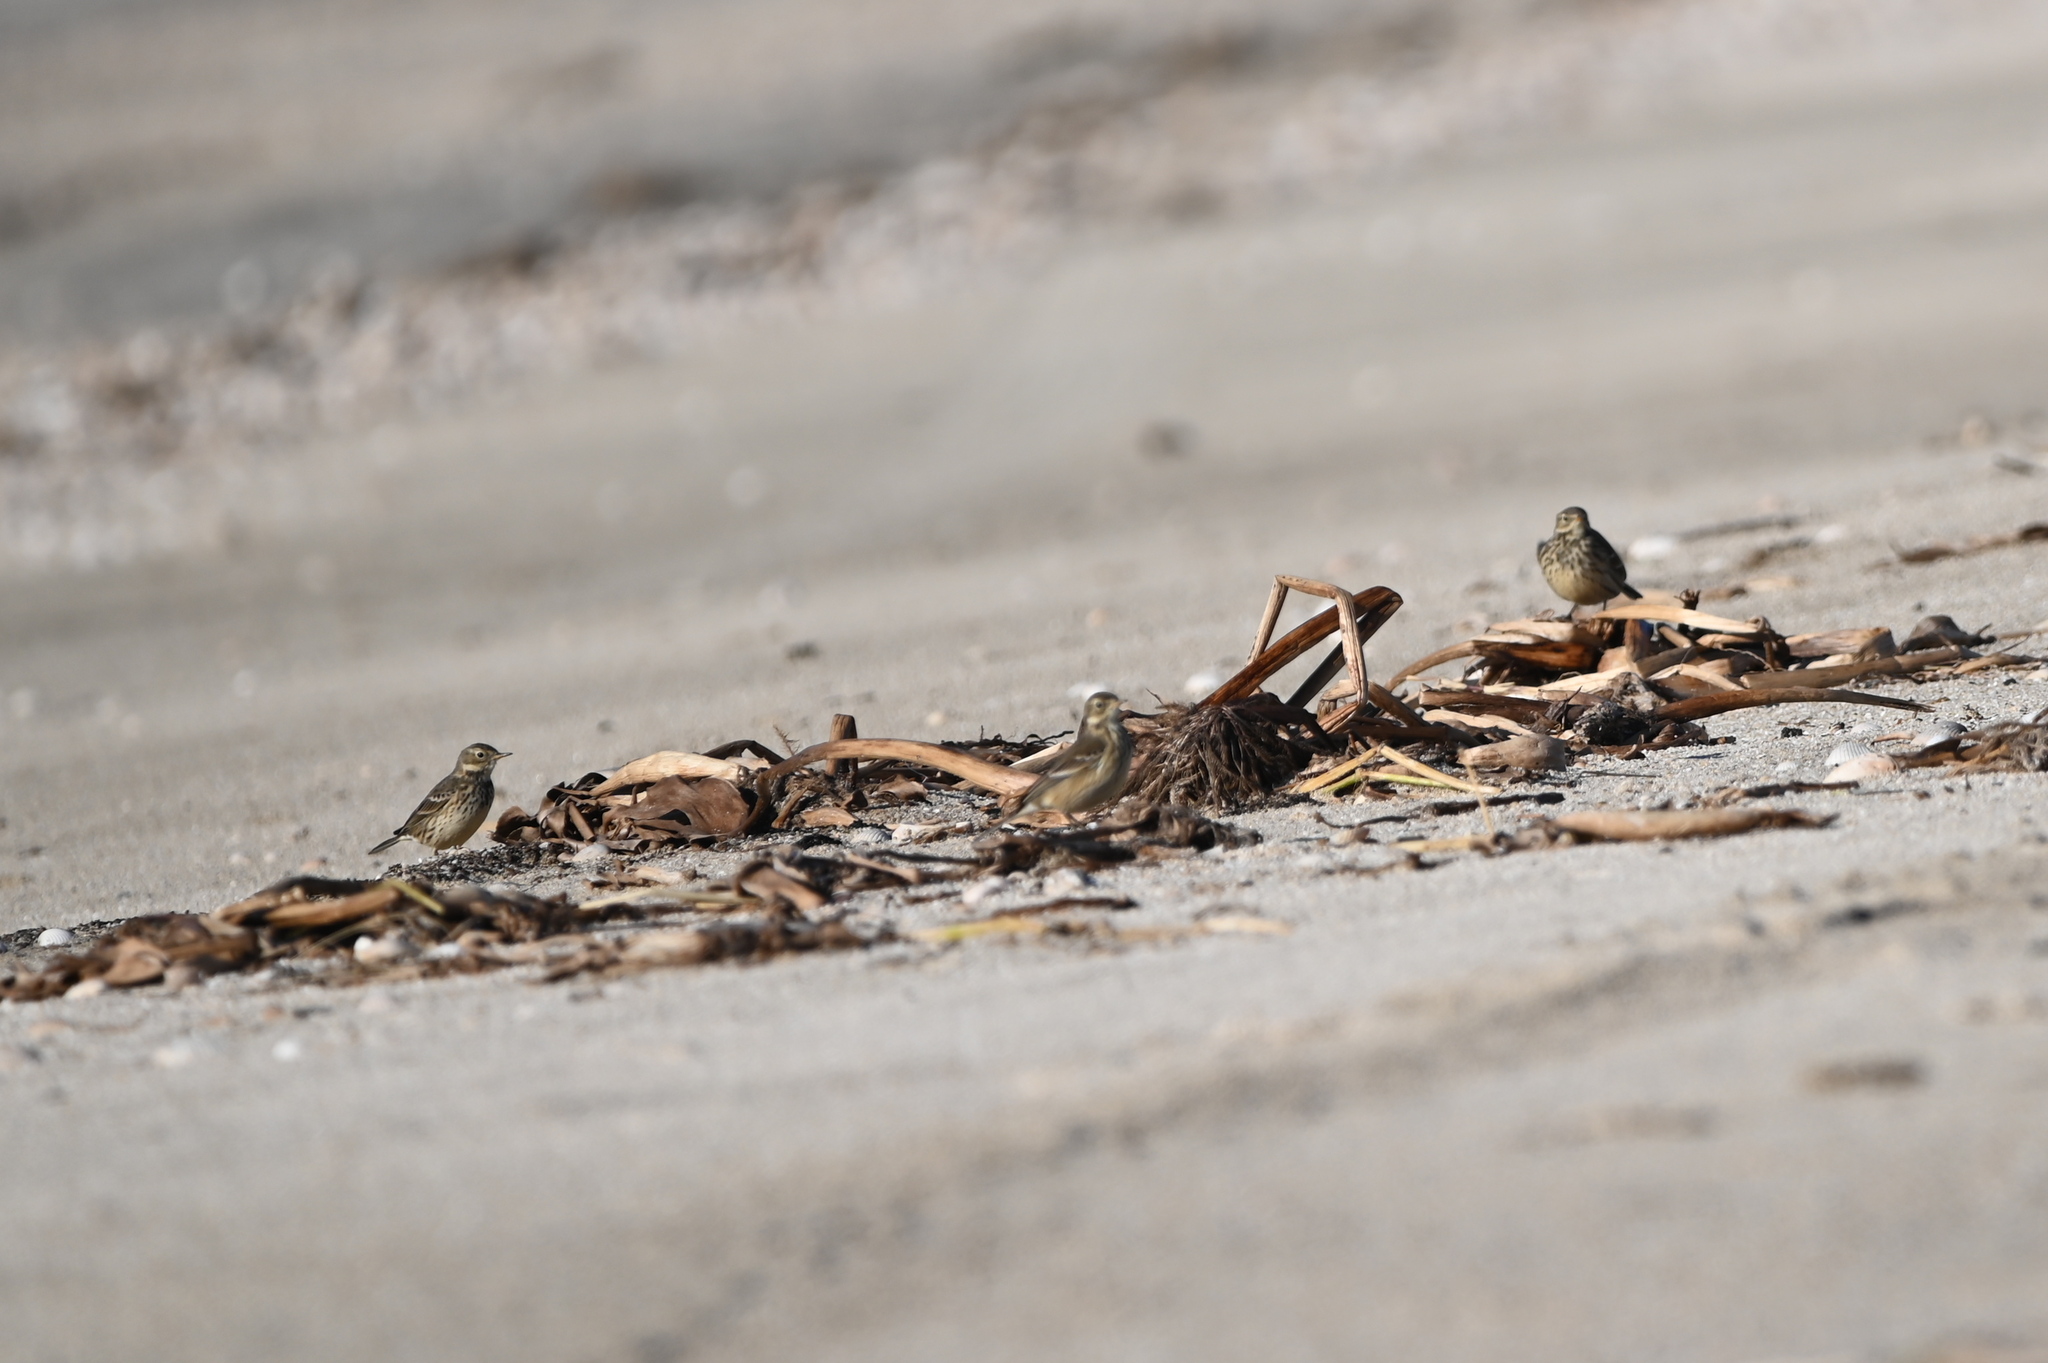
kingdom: Animalia
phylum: Chordata
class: Aves
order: Passeriformes
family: Motacillidae
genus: Anthus
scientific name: Anthus rubescens
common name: Buff-bellied pipit
